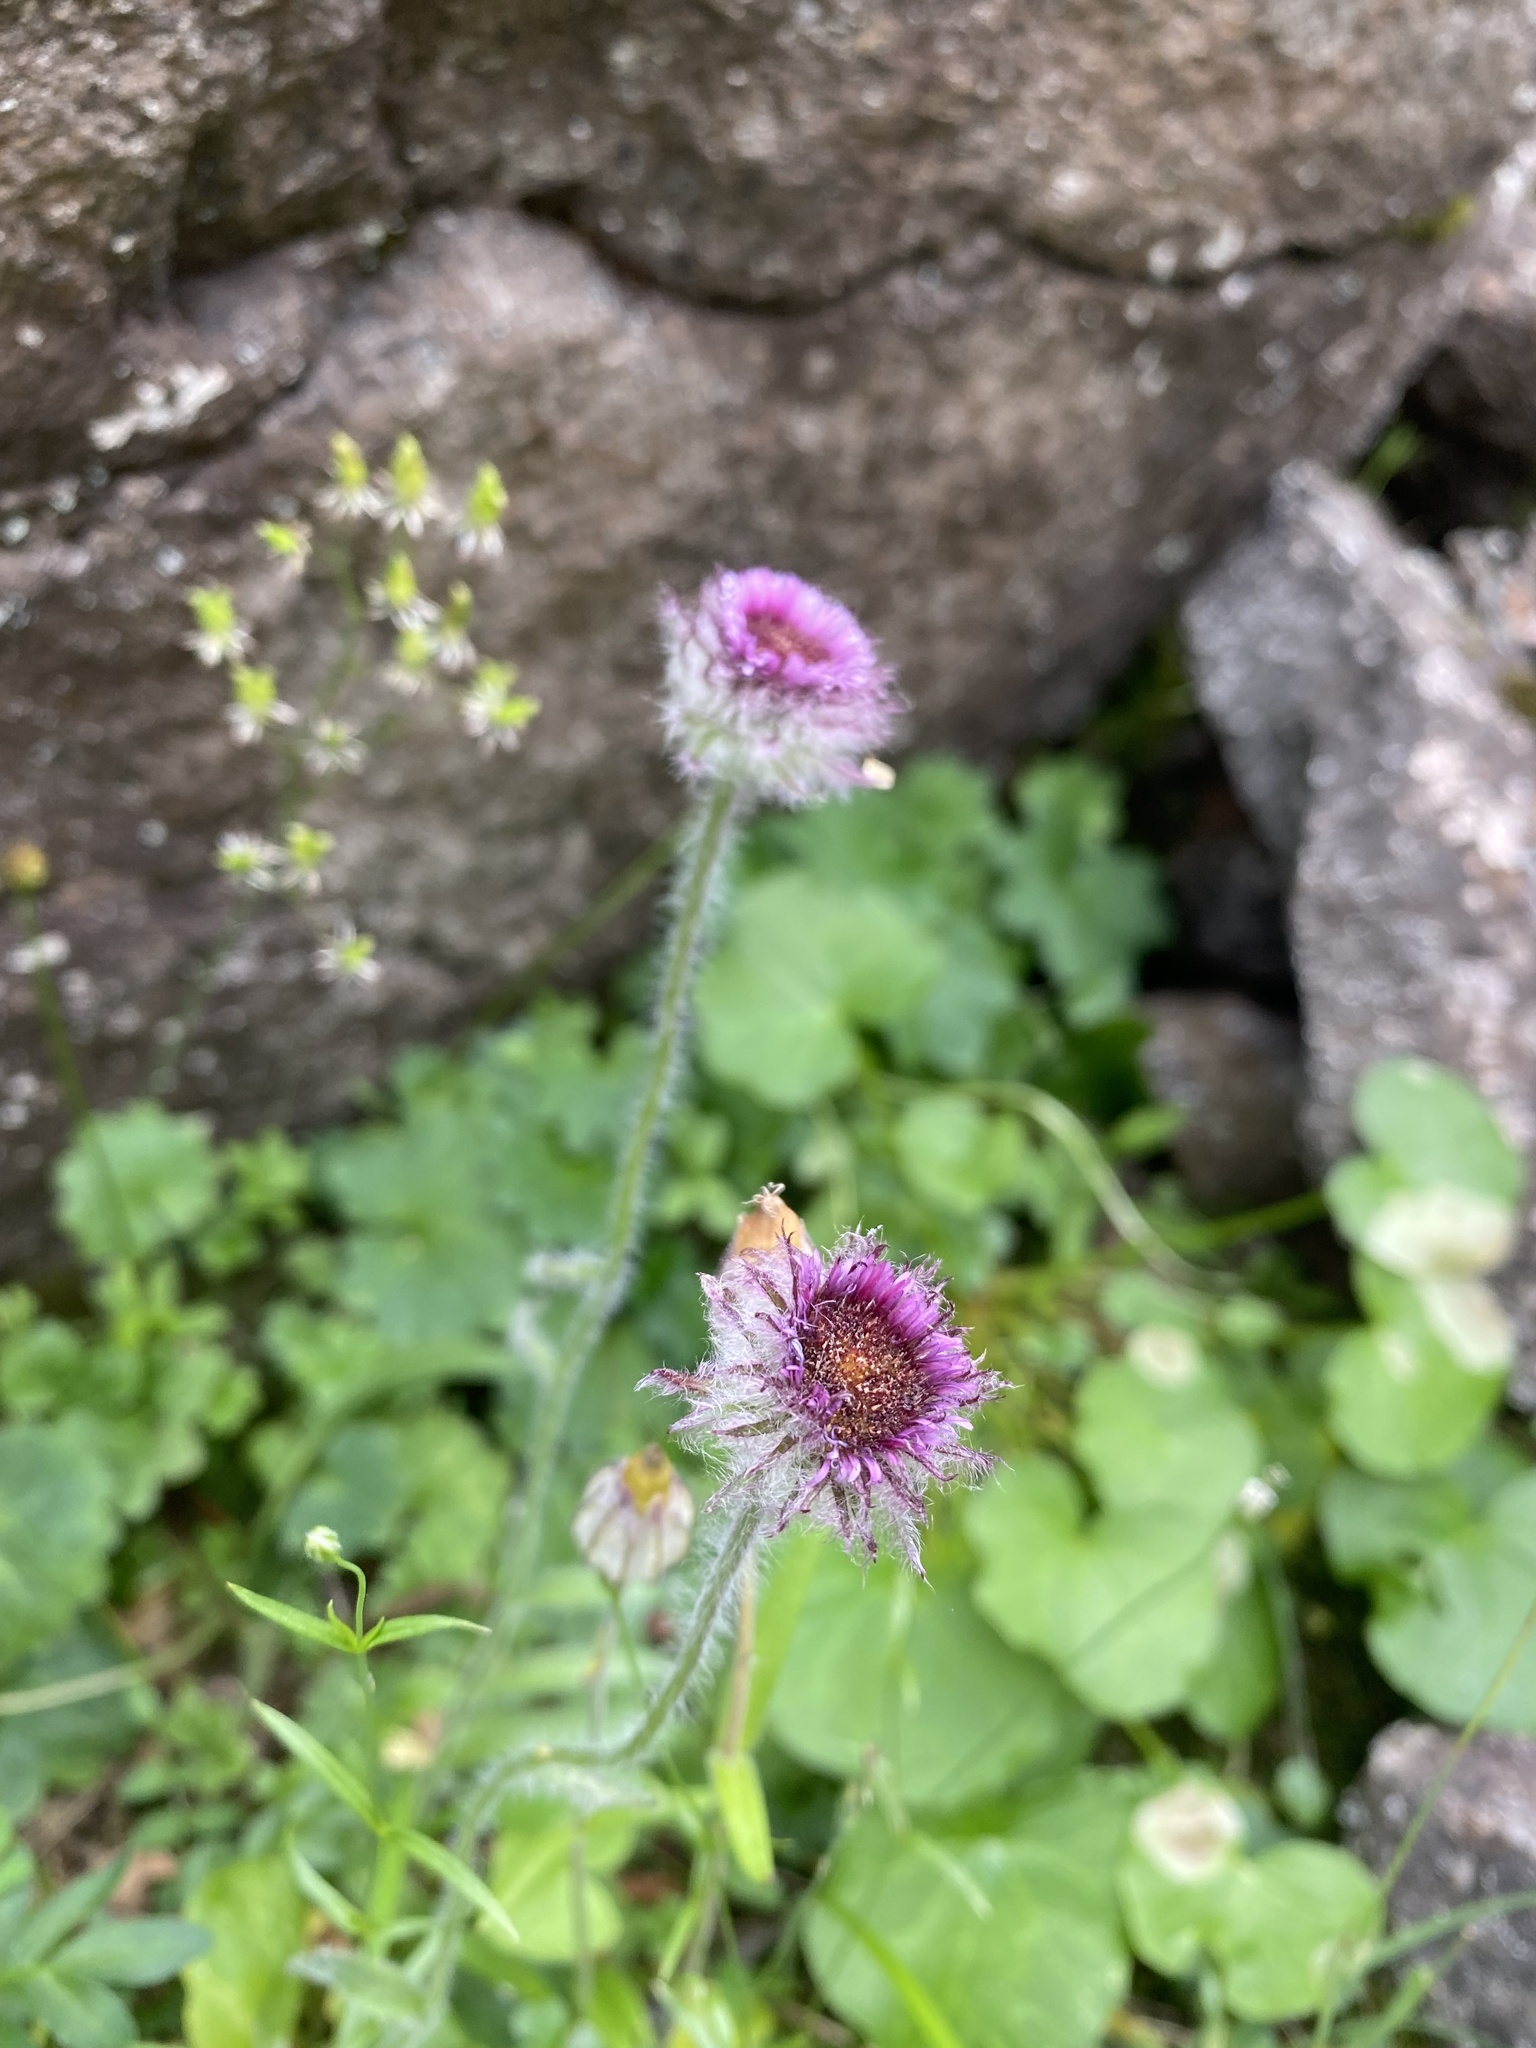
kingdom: Plantae
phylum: Tracheophyta
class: Magnoliopsida
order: Asterales
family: Asteraceae
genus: Erigeron
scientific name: Erigeron eriocalyx
